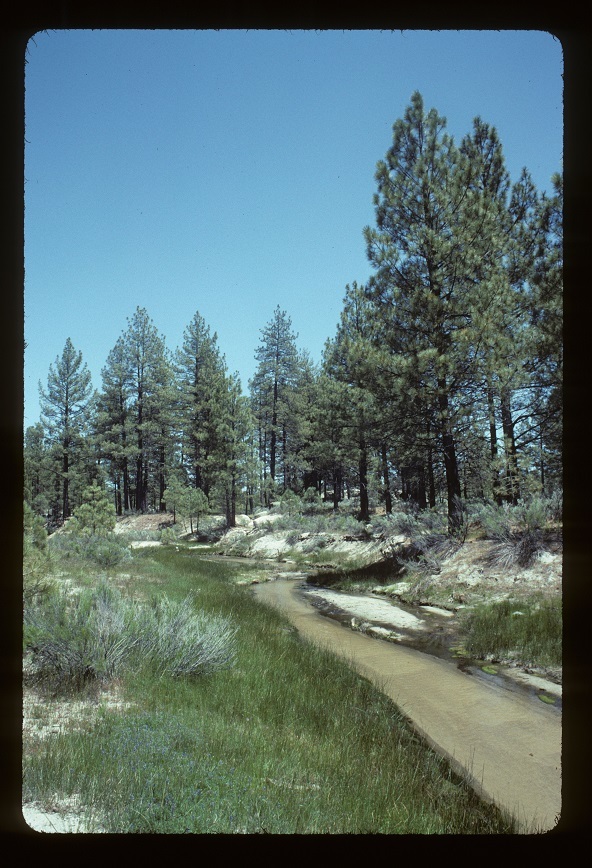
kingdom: Plantae
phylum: Tracheophyta
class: Pinopsida
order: Pinales
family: Pinaceae
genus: Pinus
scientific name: Pinus jeffreyi
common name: Jeffrey pine
